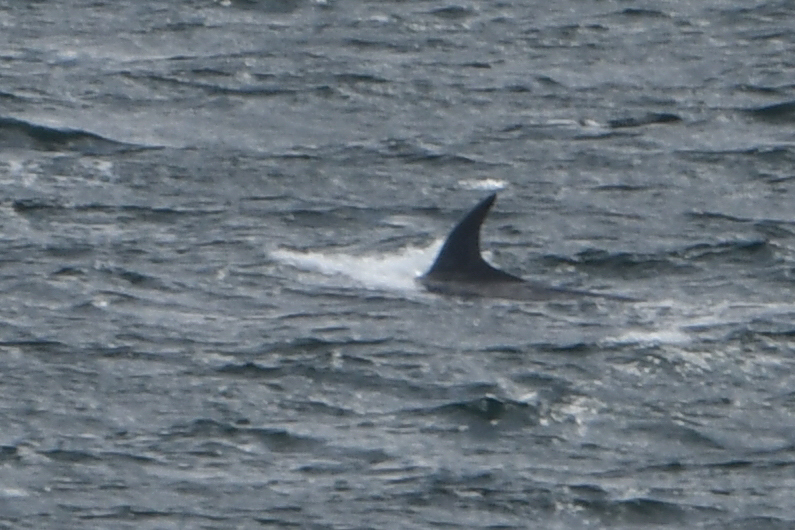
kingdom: Animalia
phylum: Chordata
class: Mammalia
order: Cetacea
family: Balaenopteridae
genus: Balaenoptera
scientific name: Balaenoptera borealis
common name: Sei whale
